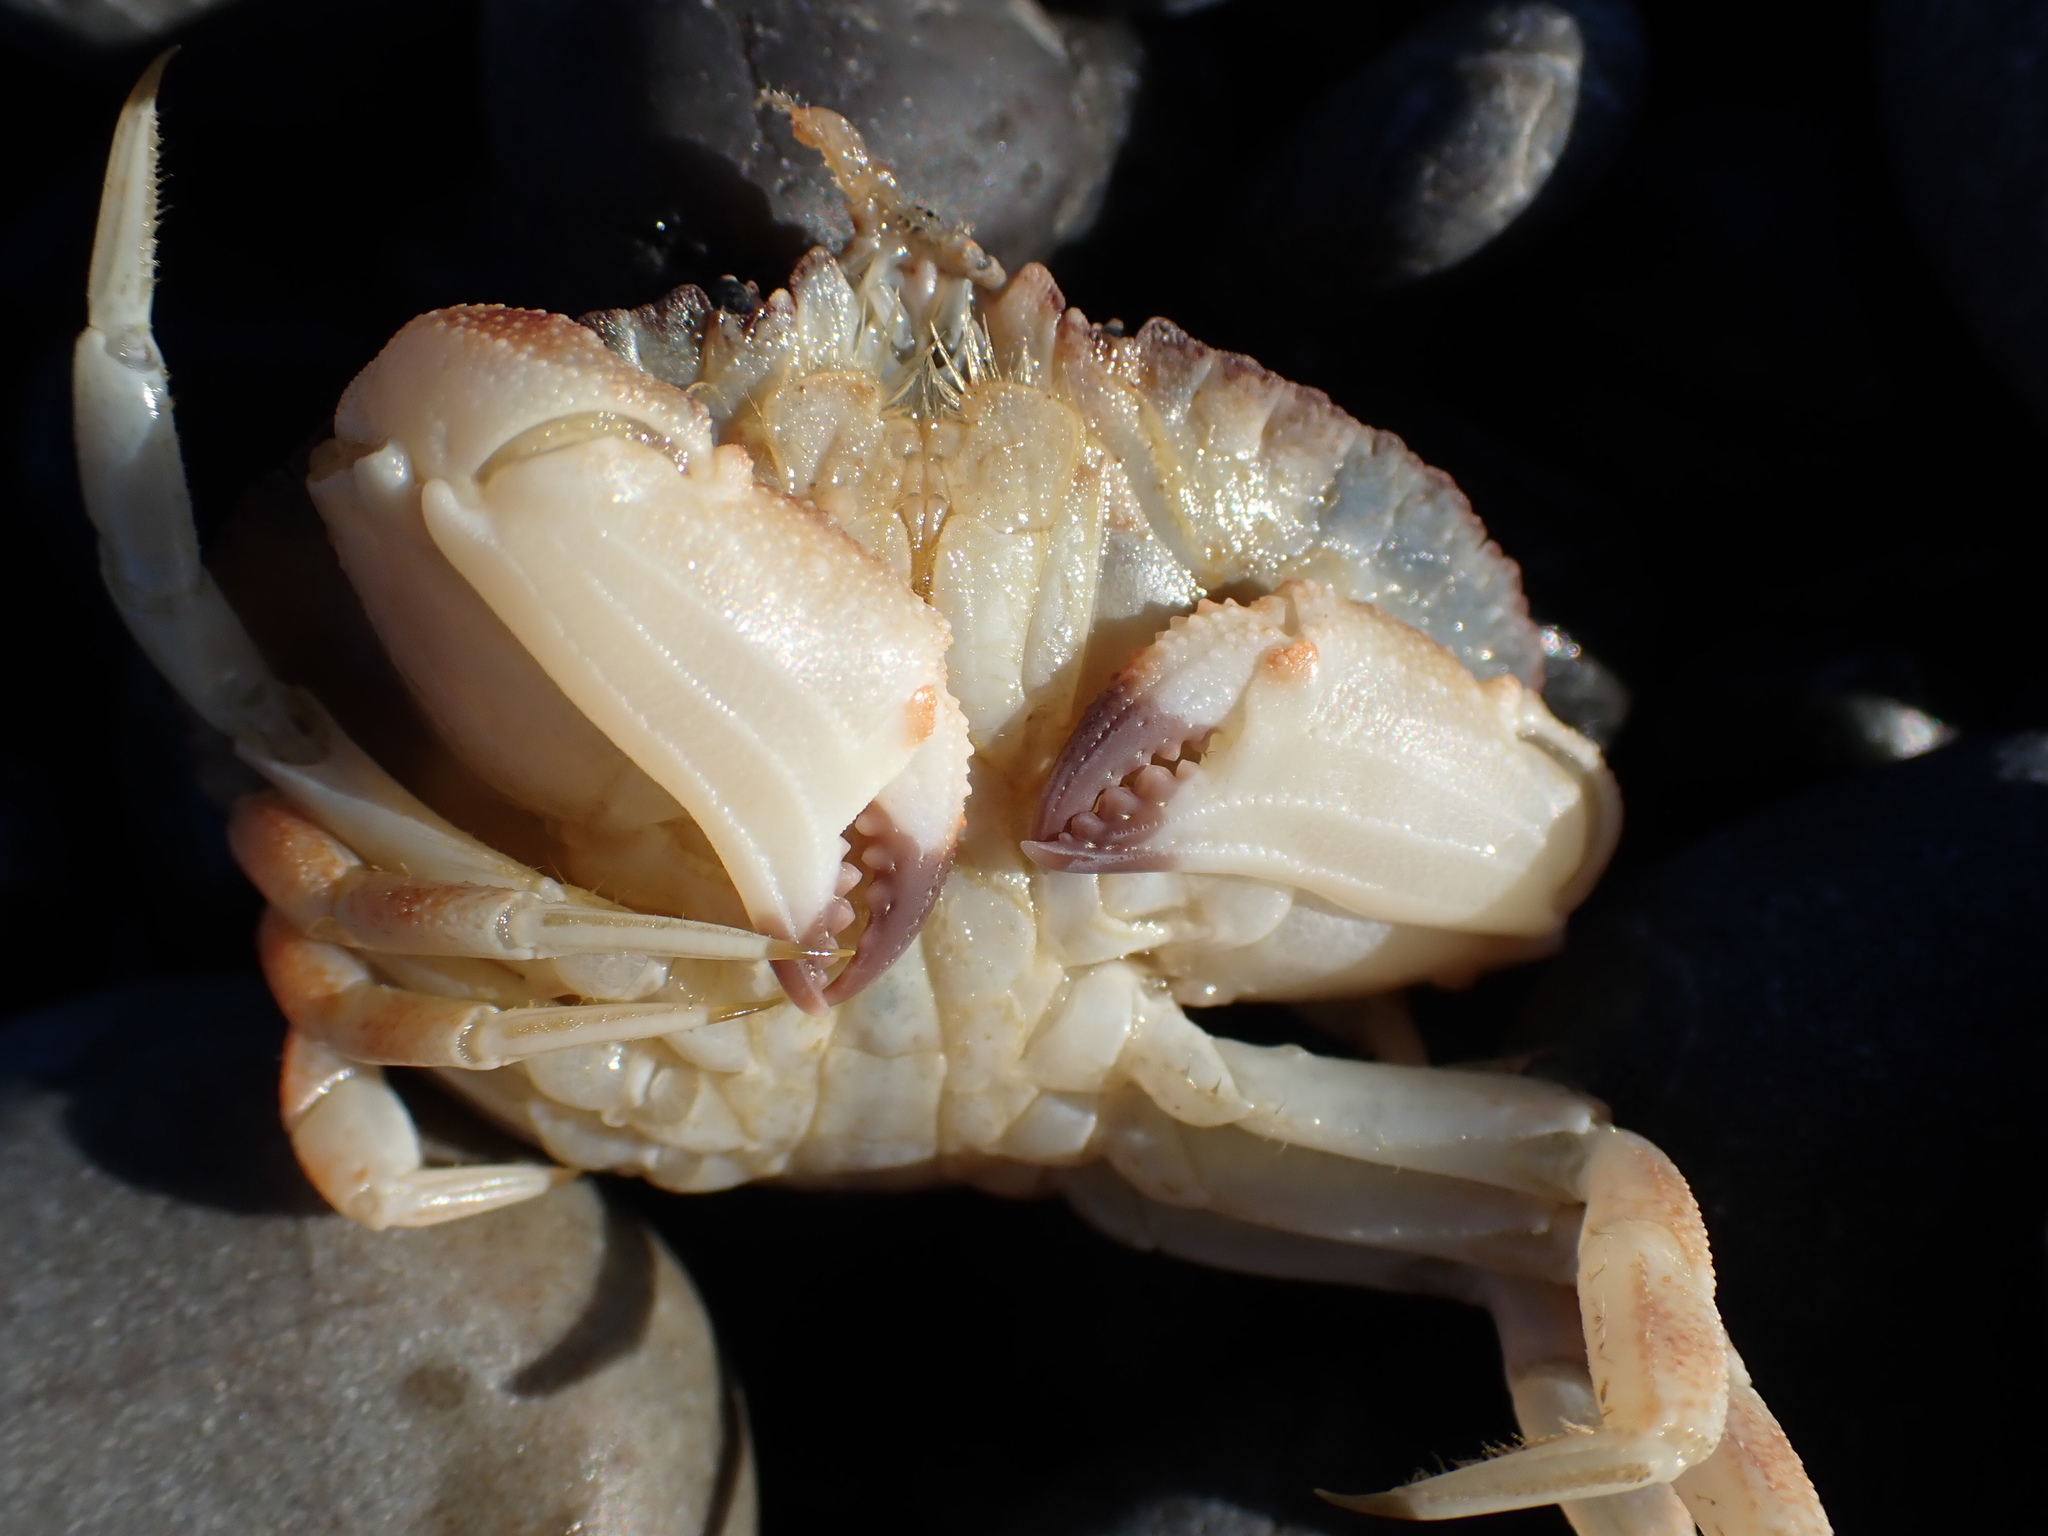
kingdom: Animalia
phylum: Arthropoda
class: Malacostraca
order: Decapoda
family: Cancridae
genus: Metacarcinus
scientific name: Metacarcinus novaezelandiae
